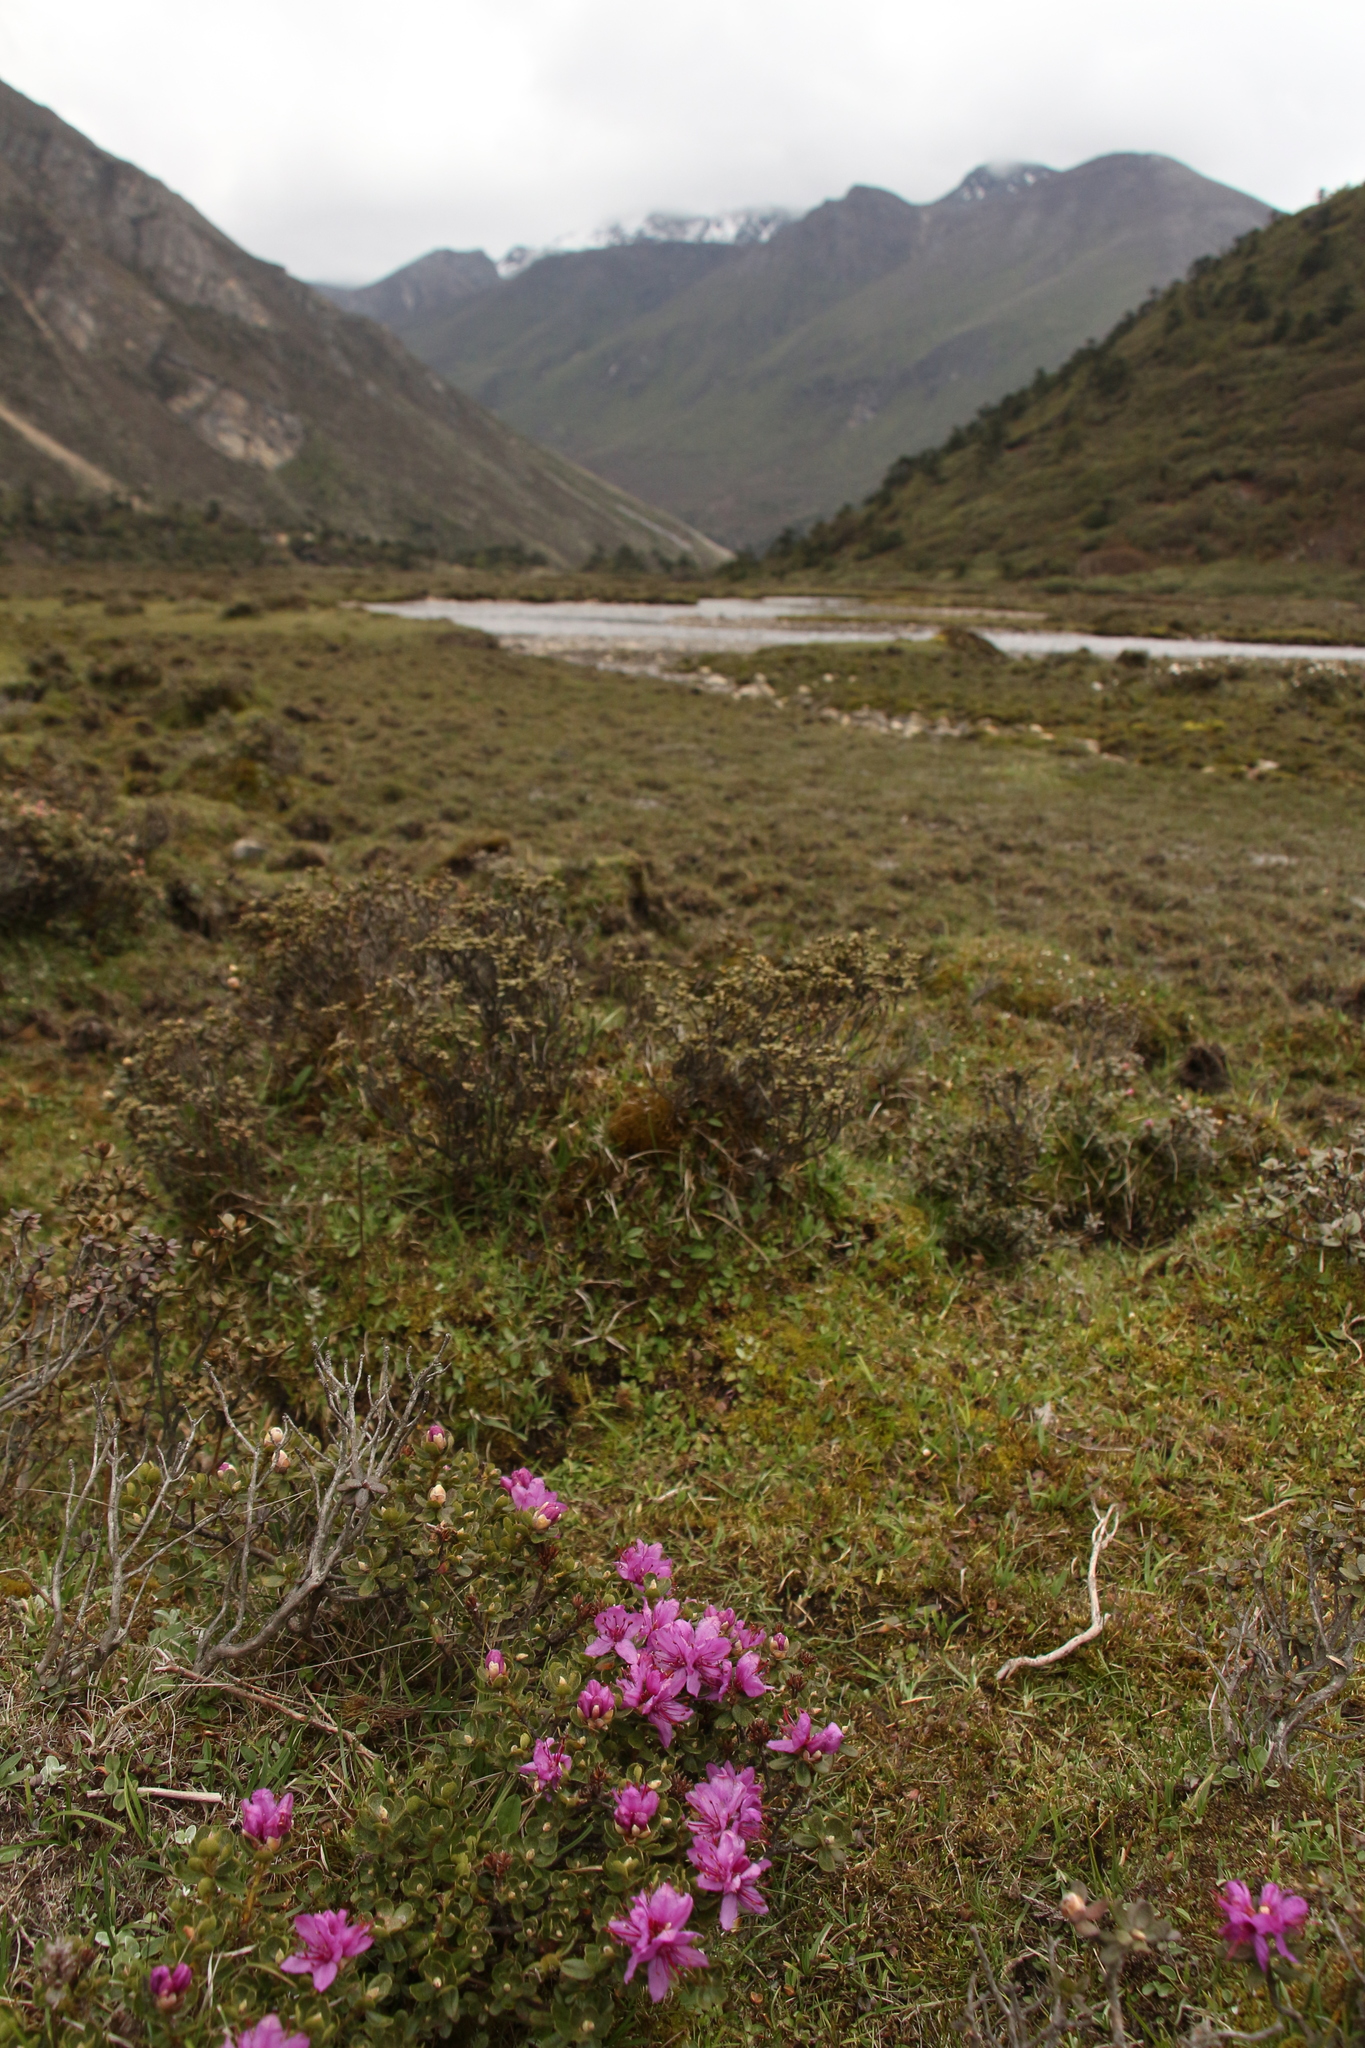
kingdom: Plantae
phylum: Tracheophyta
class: Magnoliopsida
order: Ericales
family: Ericaceae
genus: Rhododendron
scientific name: Rhododendron setosum
